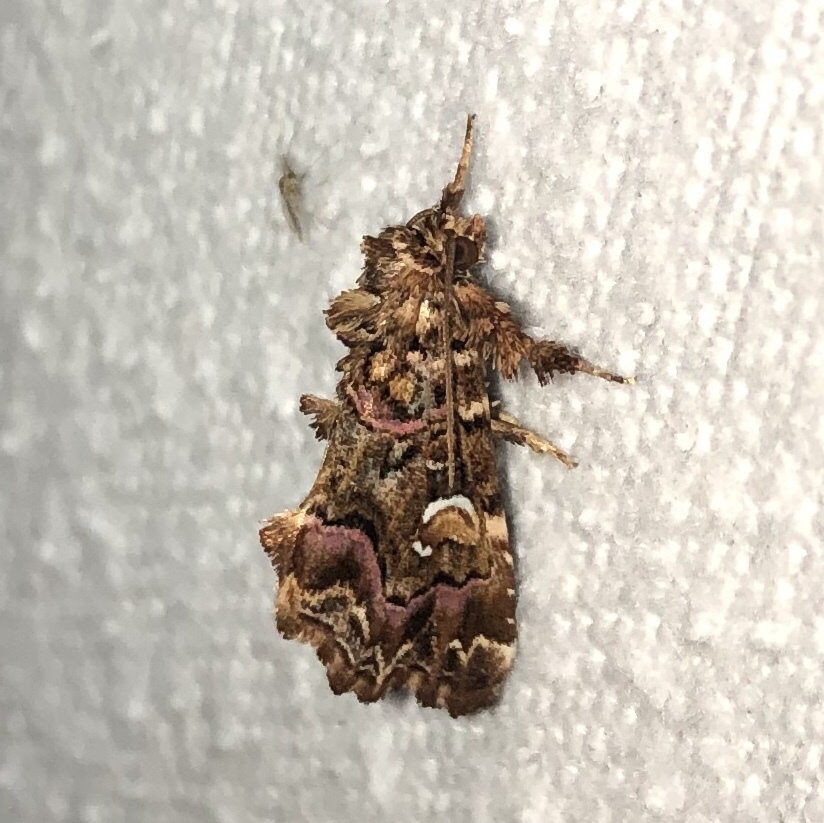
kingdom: Animalia
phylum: Arthropoda
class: Insecta
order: Lepidoptera
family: Noctuidae
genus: Callopistria
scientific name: Callopistria mollissima
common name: Pink-shaded fern moth
